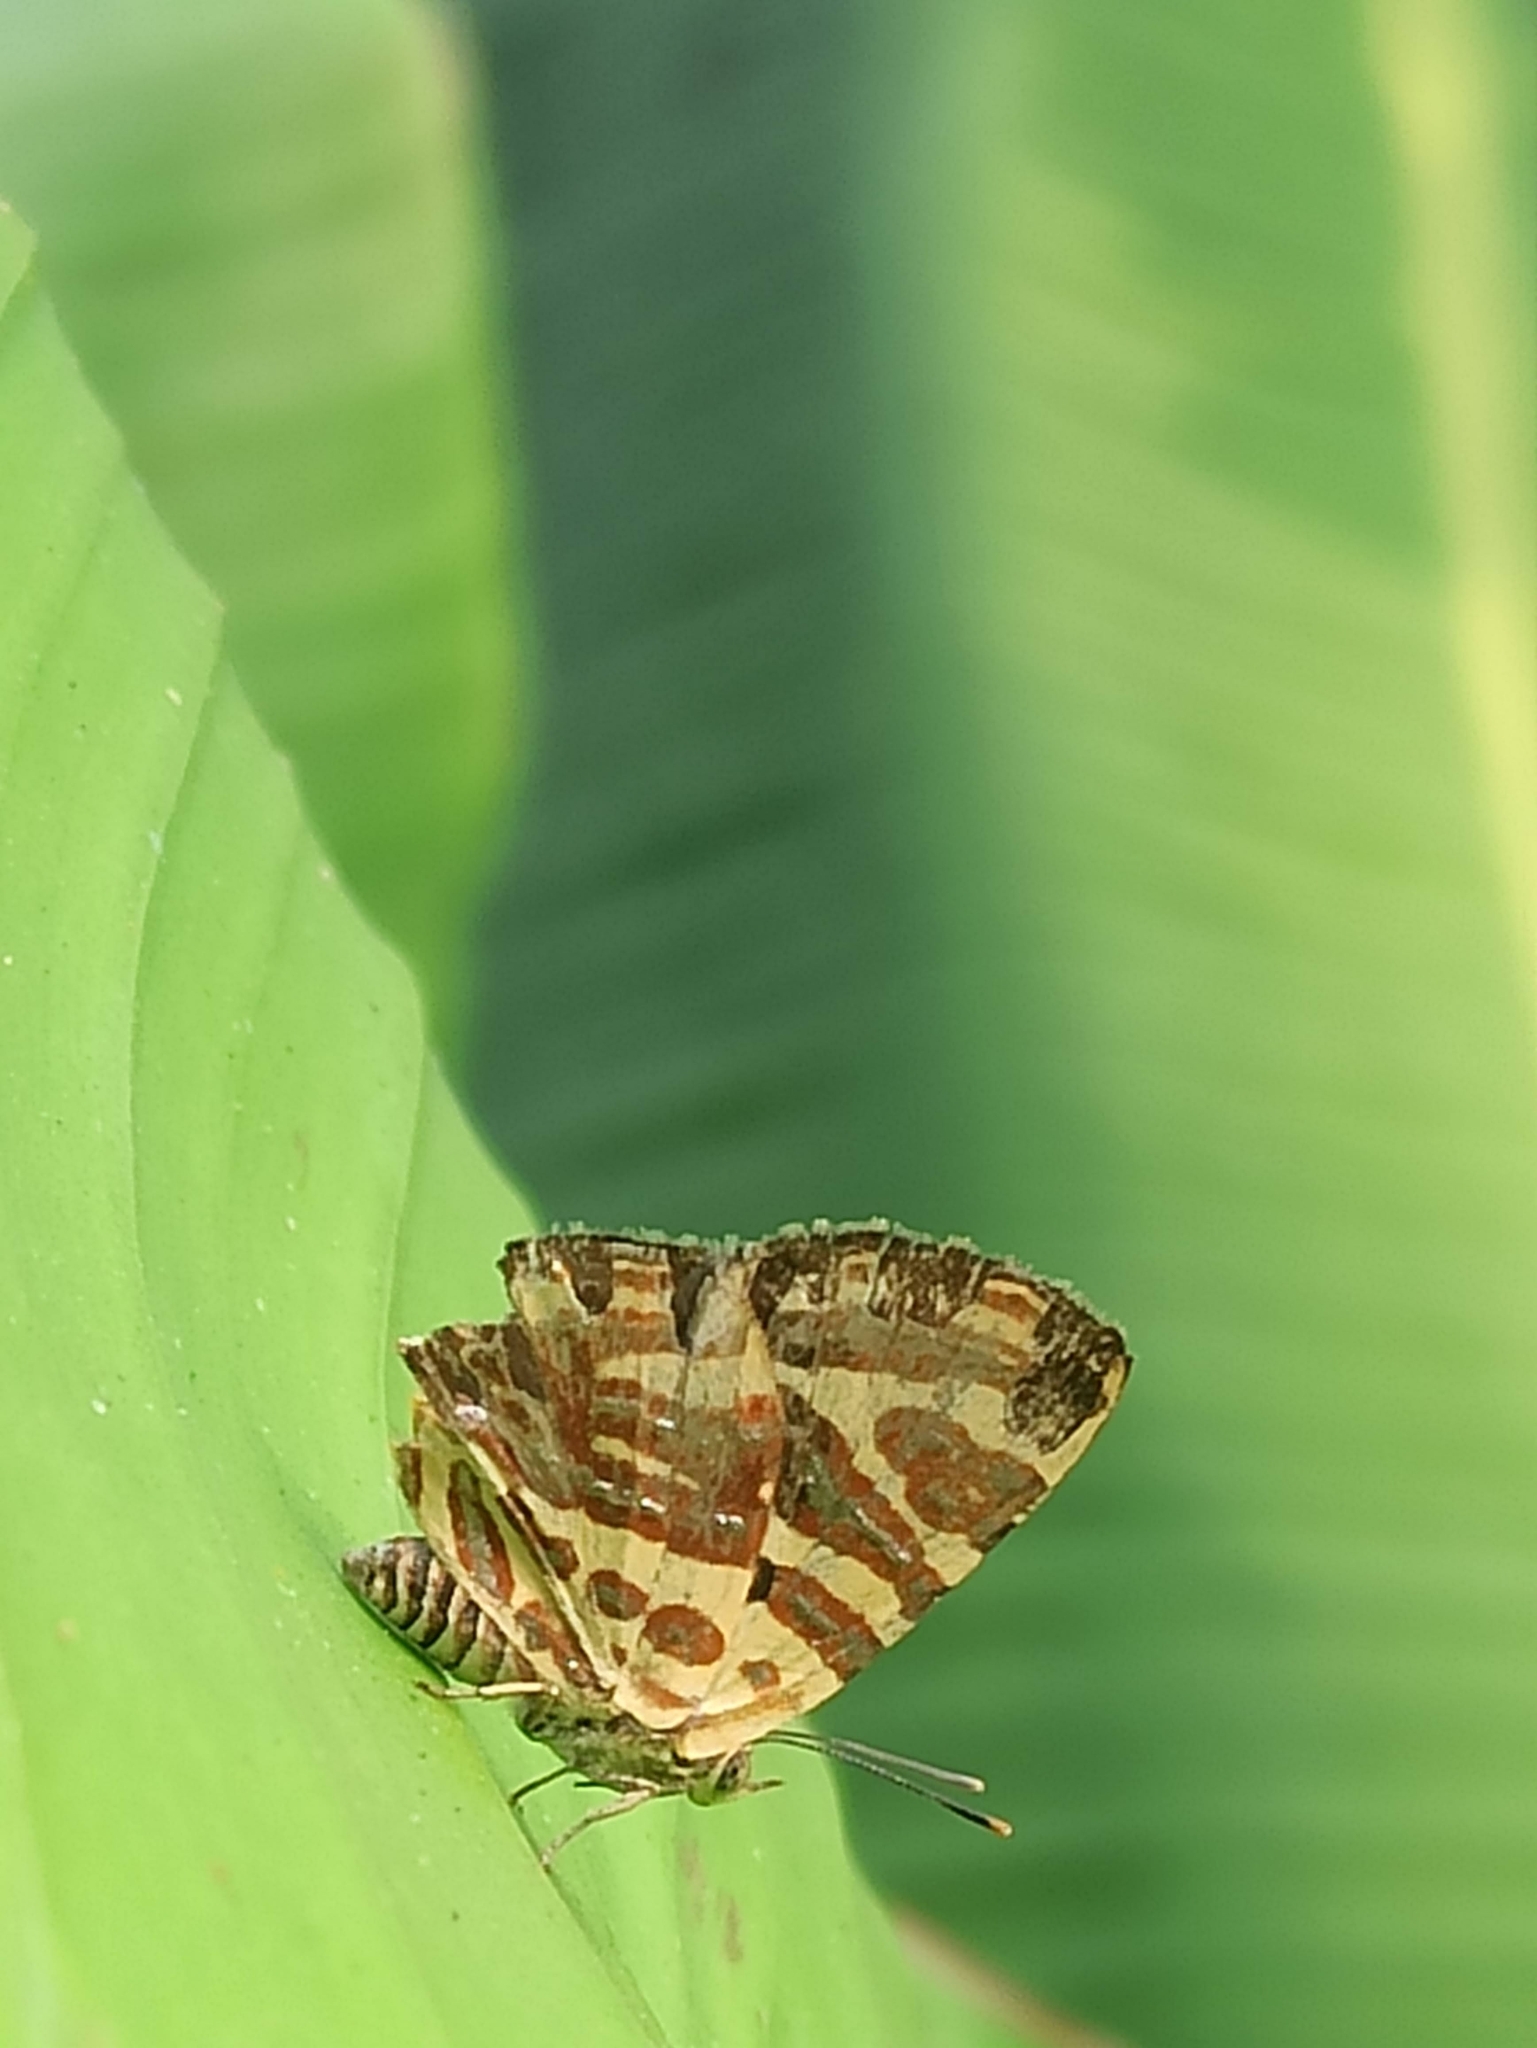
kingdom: Animalia
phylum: Arthropoda
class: Insecta
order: Lepidoptera
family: Lycaenidae
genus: Cigaritis
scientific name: Cigaritis lohita
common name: Long-banded silverline
